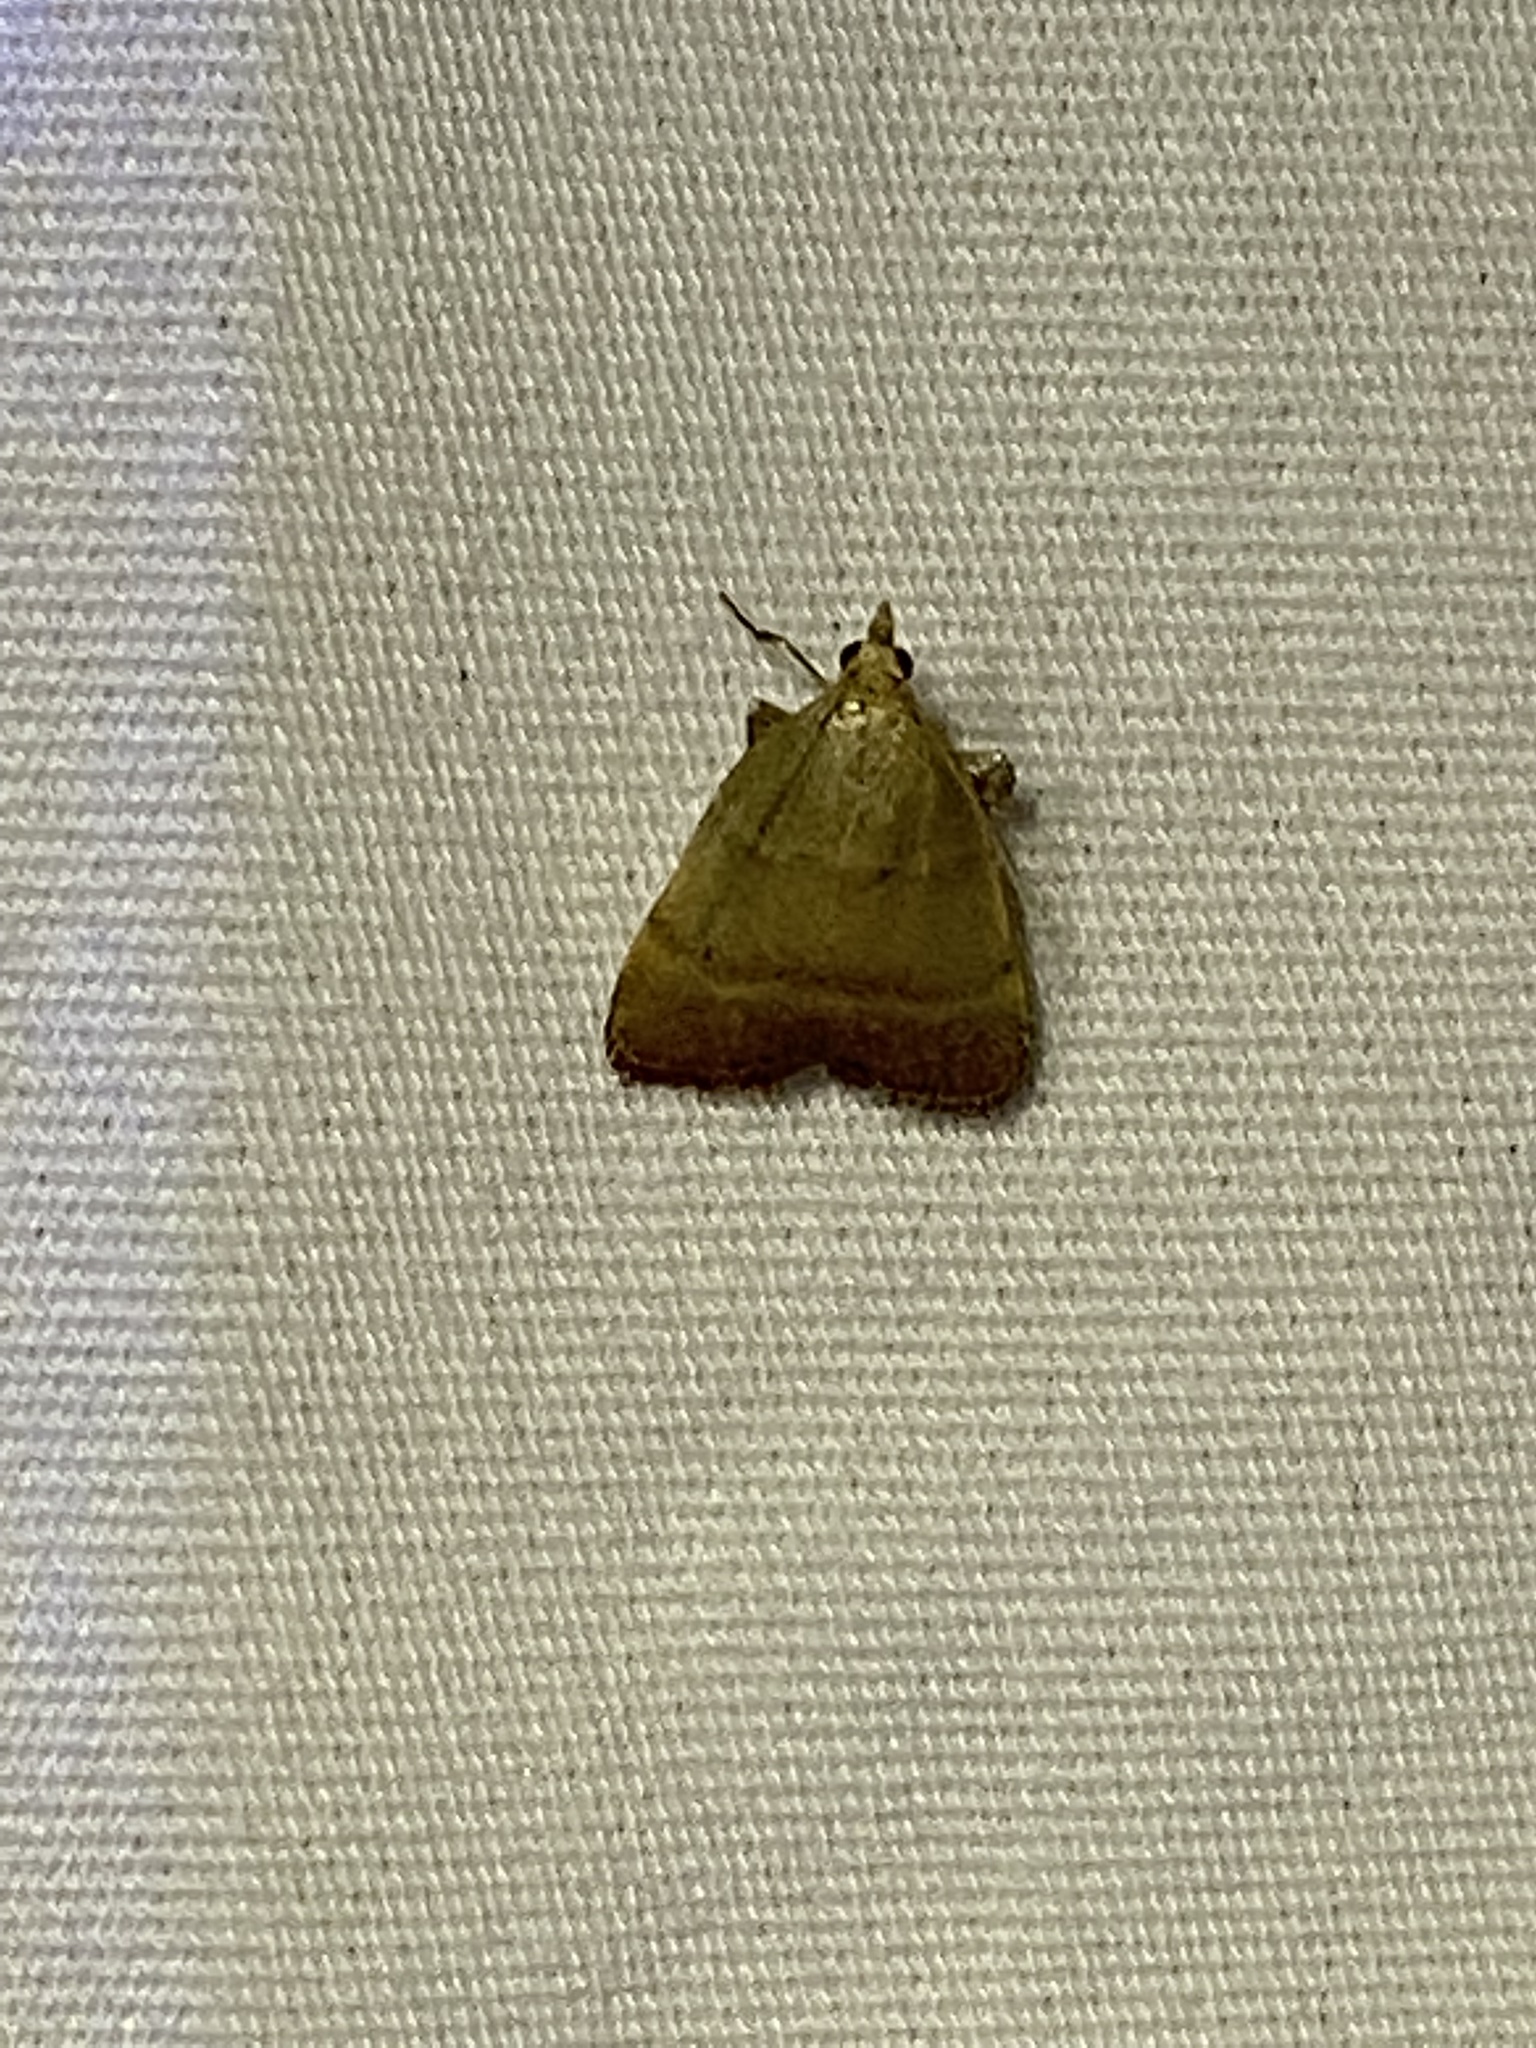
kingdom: Animalia
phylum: Arthropoda
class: Insecta
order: Lepidoptera
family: Pyralidae
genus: Condylolomia
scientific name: Condylolomia participialis
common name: Drab condylolomia moth
